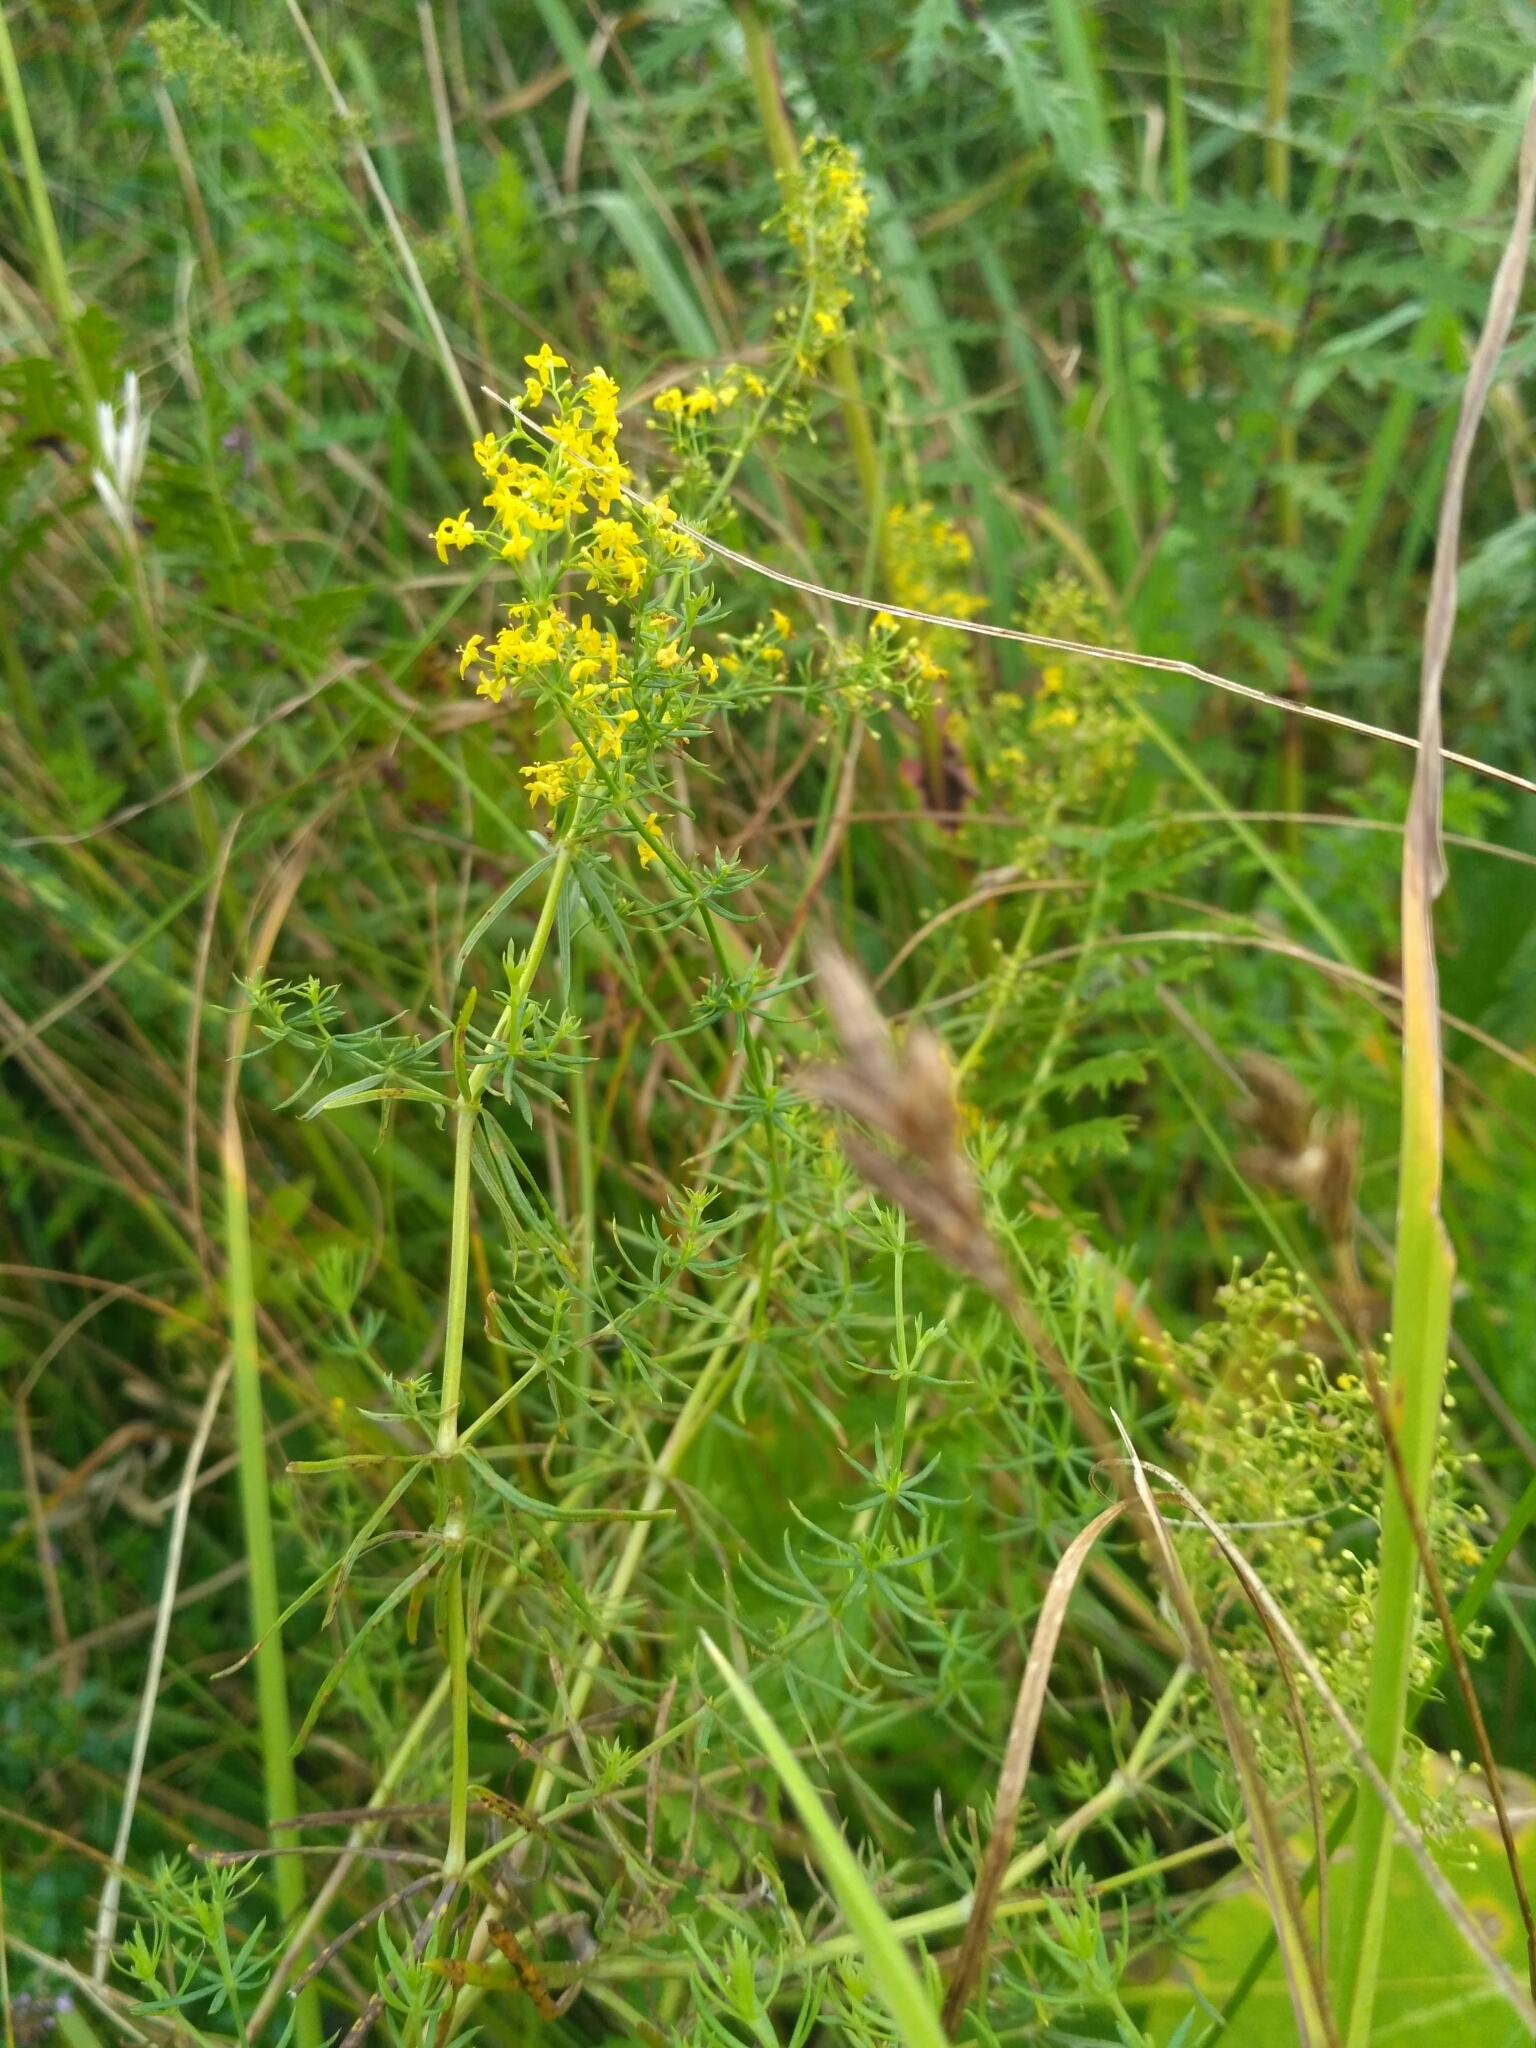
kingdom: Plantae
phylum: Tracheophyta
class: Magnoliopsida
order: Gentianales
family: Rubiaceae
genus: Galium
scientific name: Galium verum
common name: Lady's bedstraw
